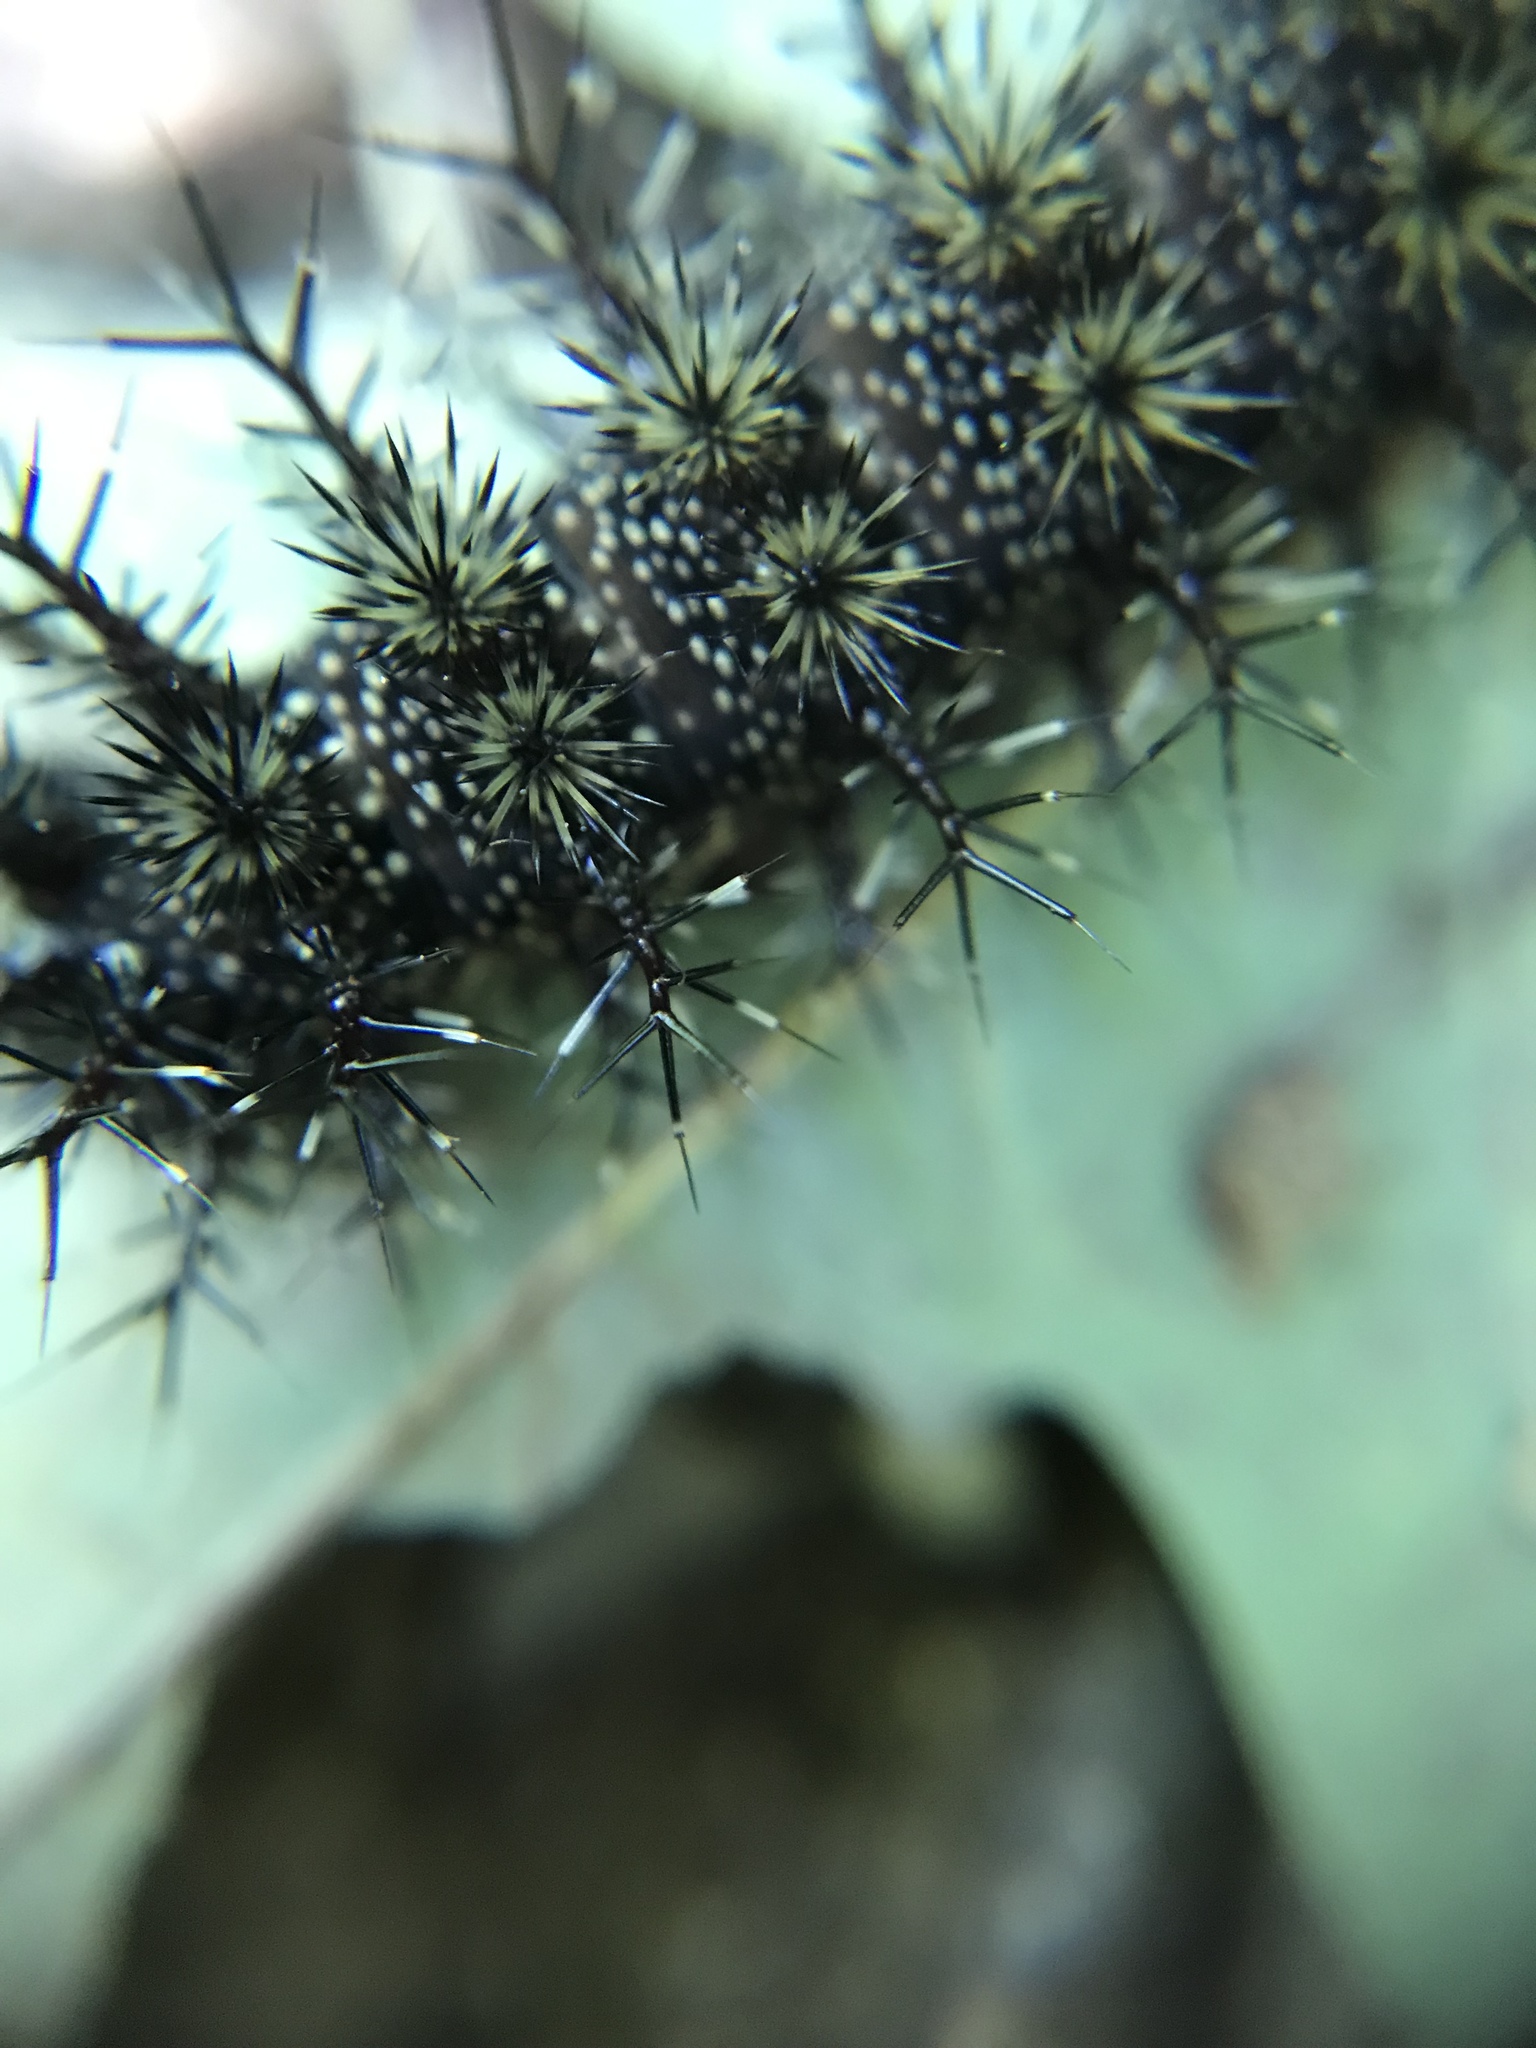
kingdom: Animalia
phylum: Arthropoda
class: Insecta
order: Lepidoptera
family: Saturniidae
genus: Hemileuca
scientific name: Hemileuca maia
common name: Eastern buckmoth
